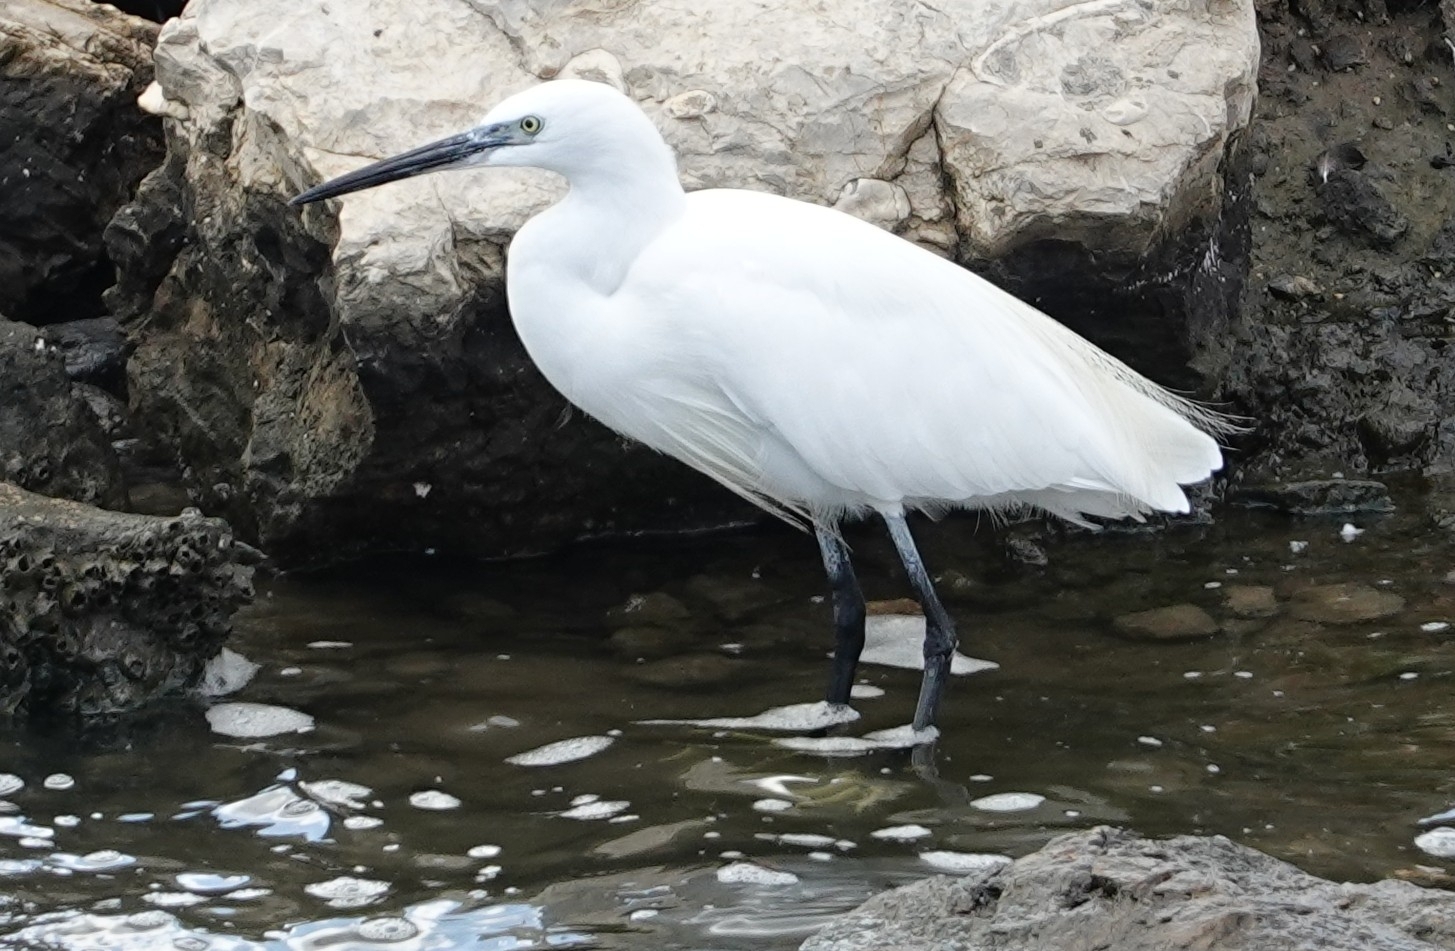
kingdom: Animalia
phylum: Chordata
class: Aves
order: Pelecaniformes
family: Ardeidae
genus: Egretta
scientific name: Egretta garzetta
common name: Little egret
